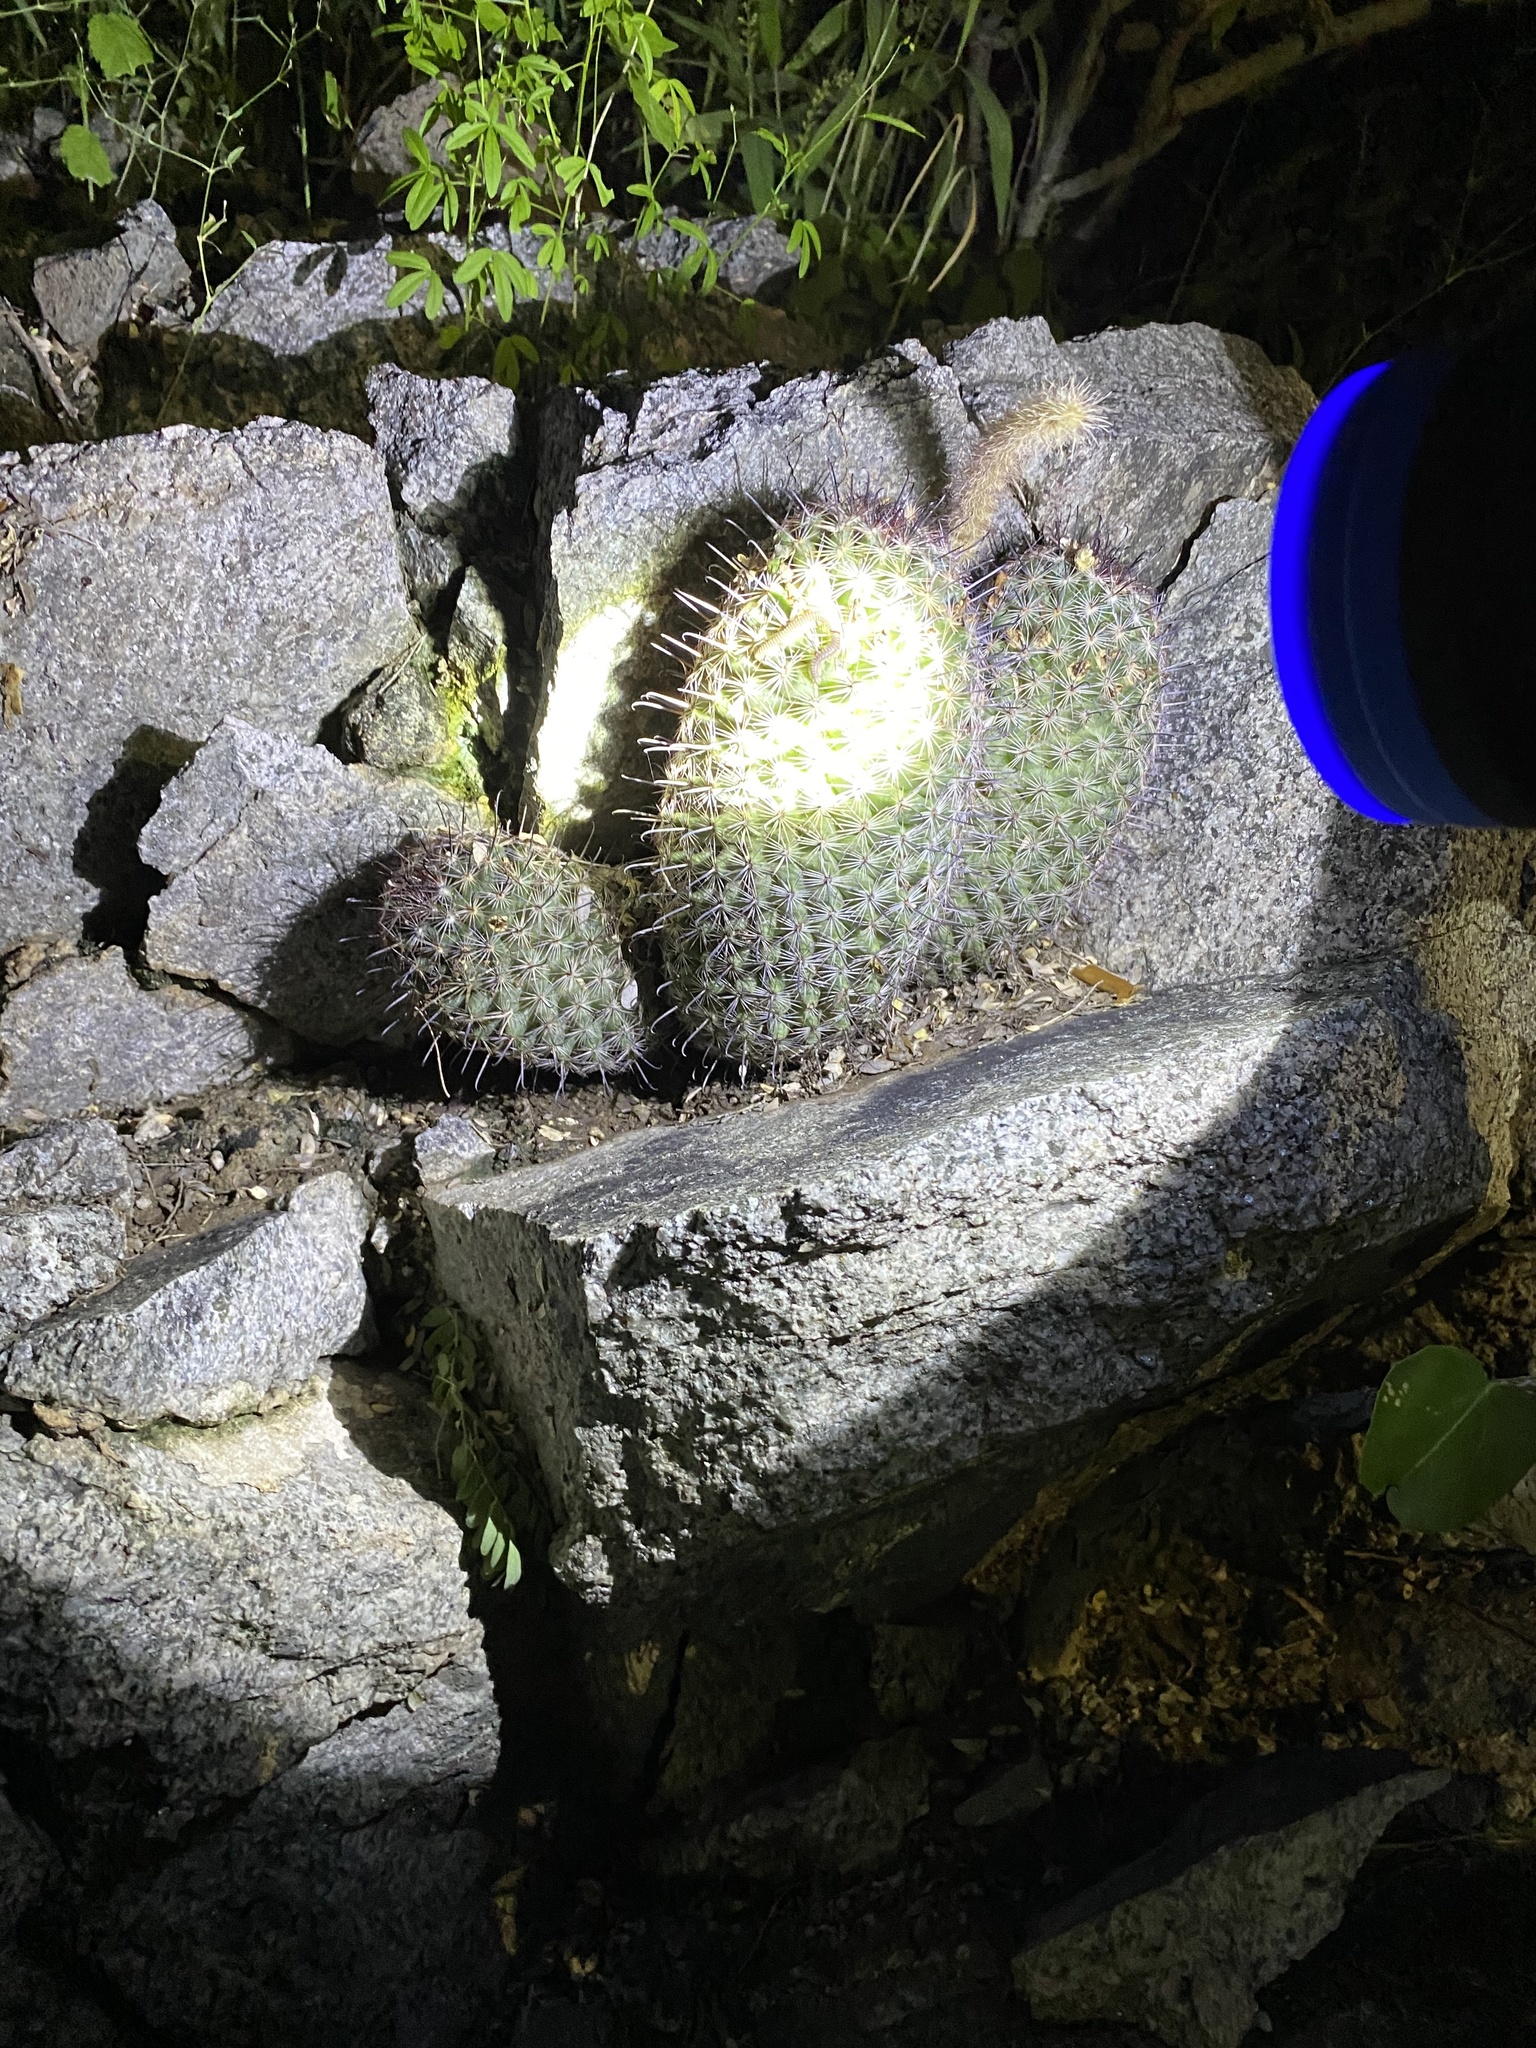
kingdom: Plantae
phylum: Tracheophyta
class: Magnoliopsida
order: Caryophyllales
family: Cactaceae
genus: Cochemiea
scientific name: Cochemiea sheldonii
